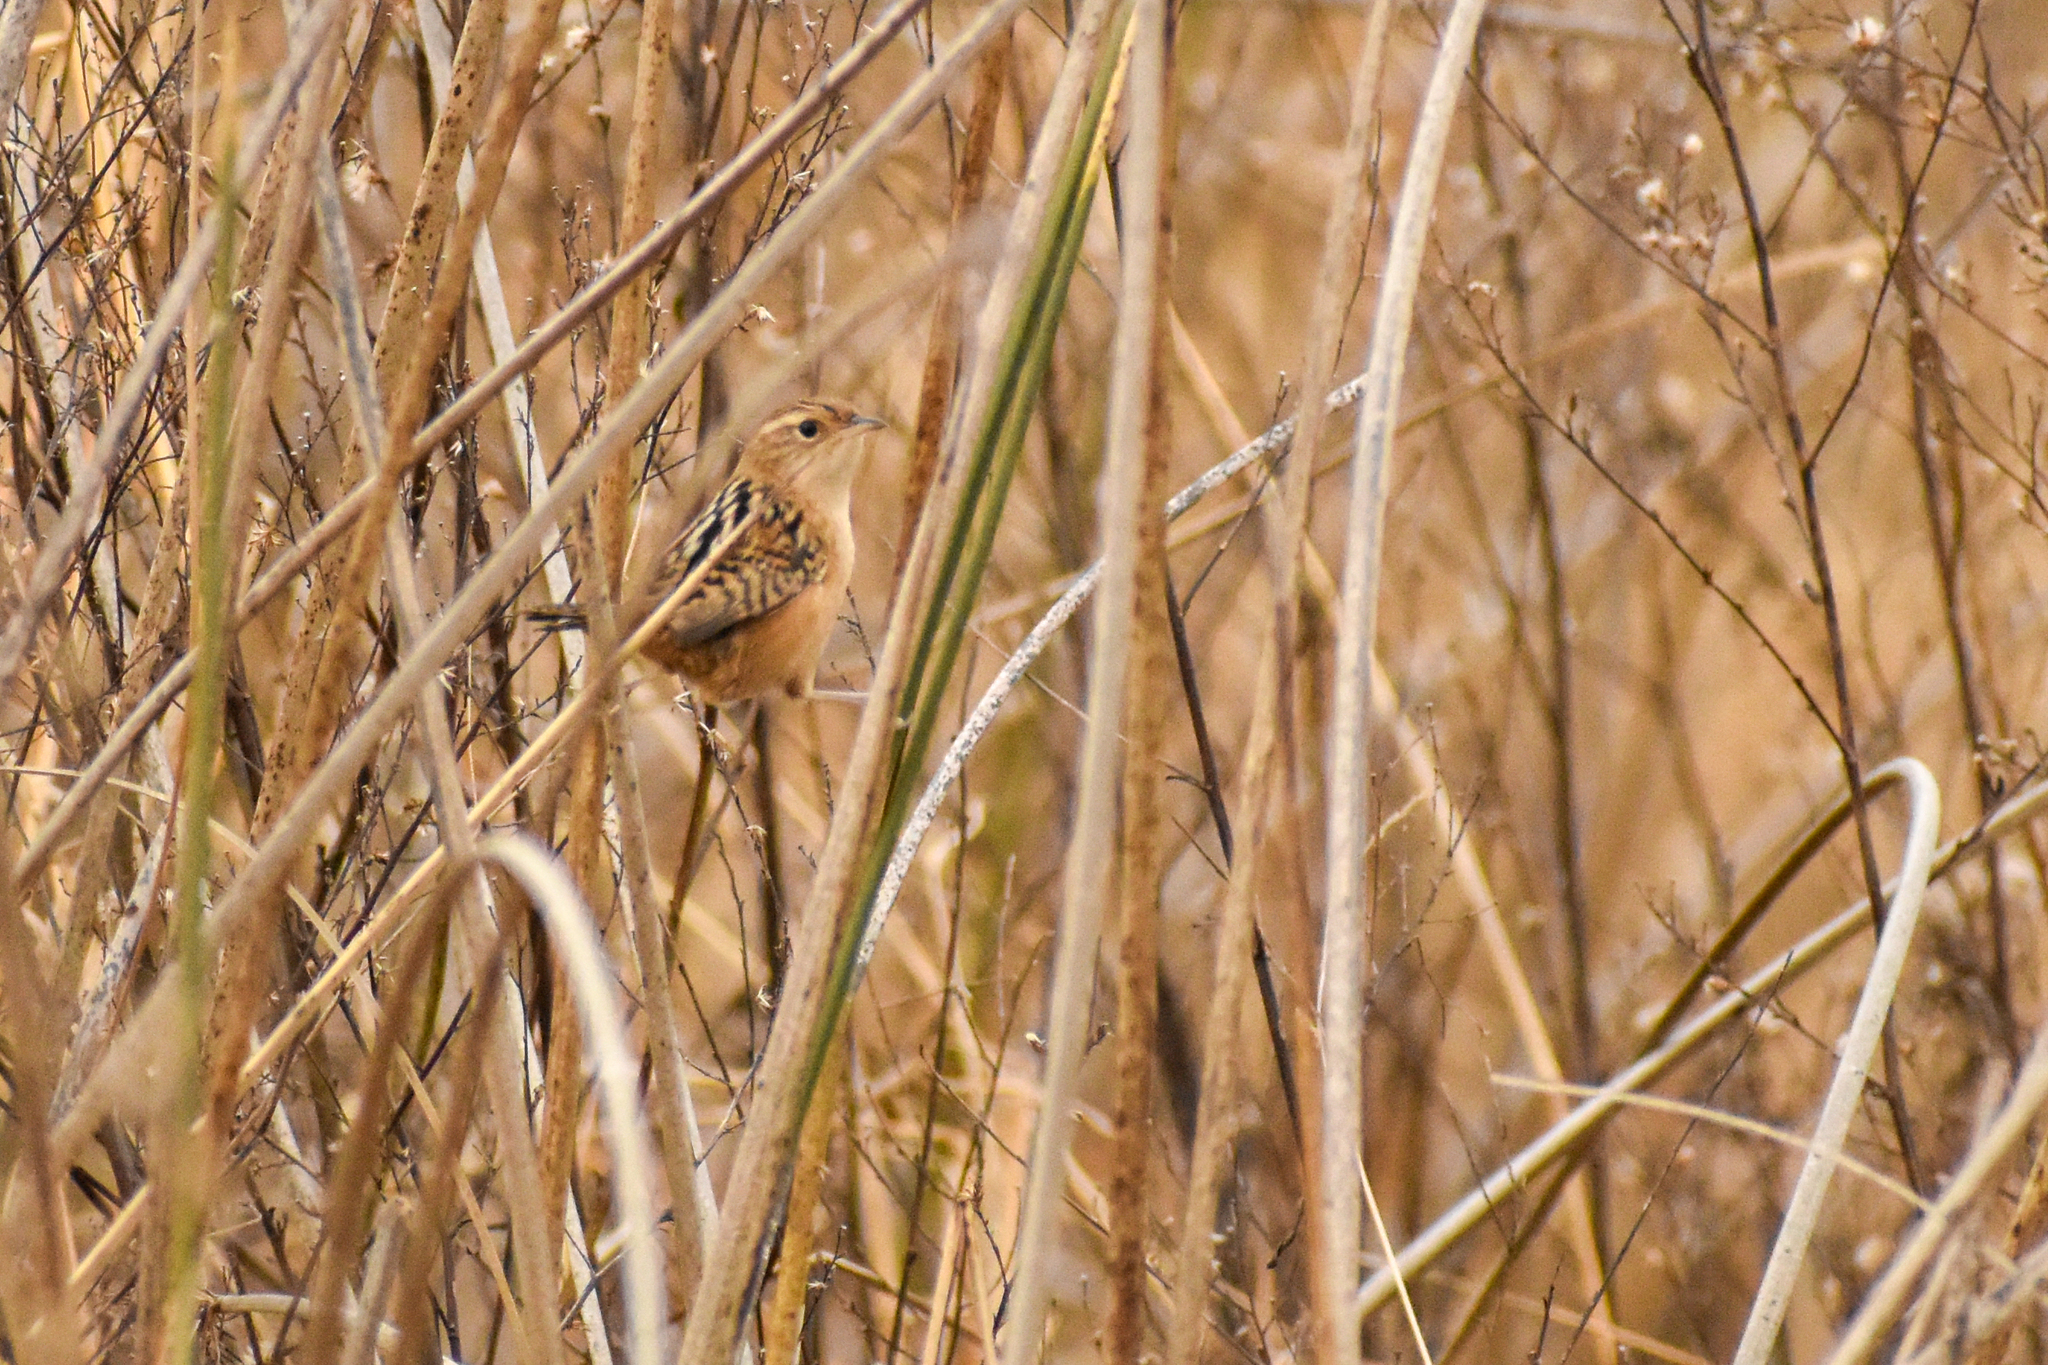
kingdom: Animalia
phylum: Chordata
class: Aves
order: Passeriformes
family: Troglodytidae
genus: Cistothorus
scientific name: Cistothorus platensis
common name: Sedge wren
